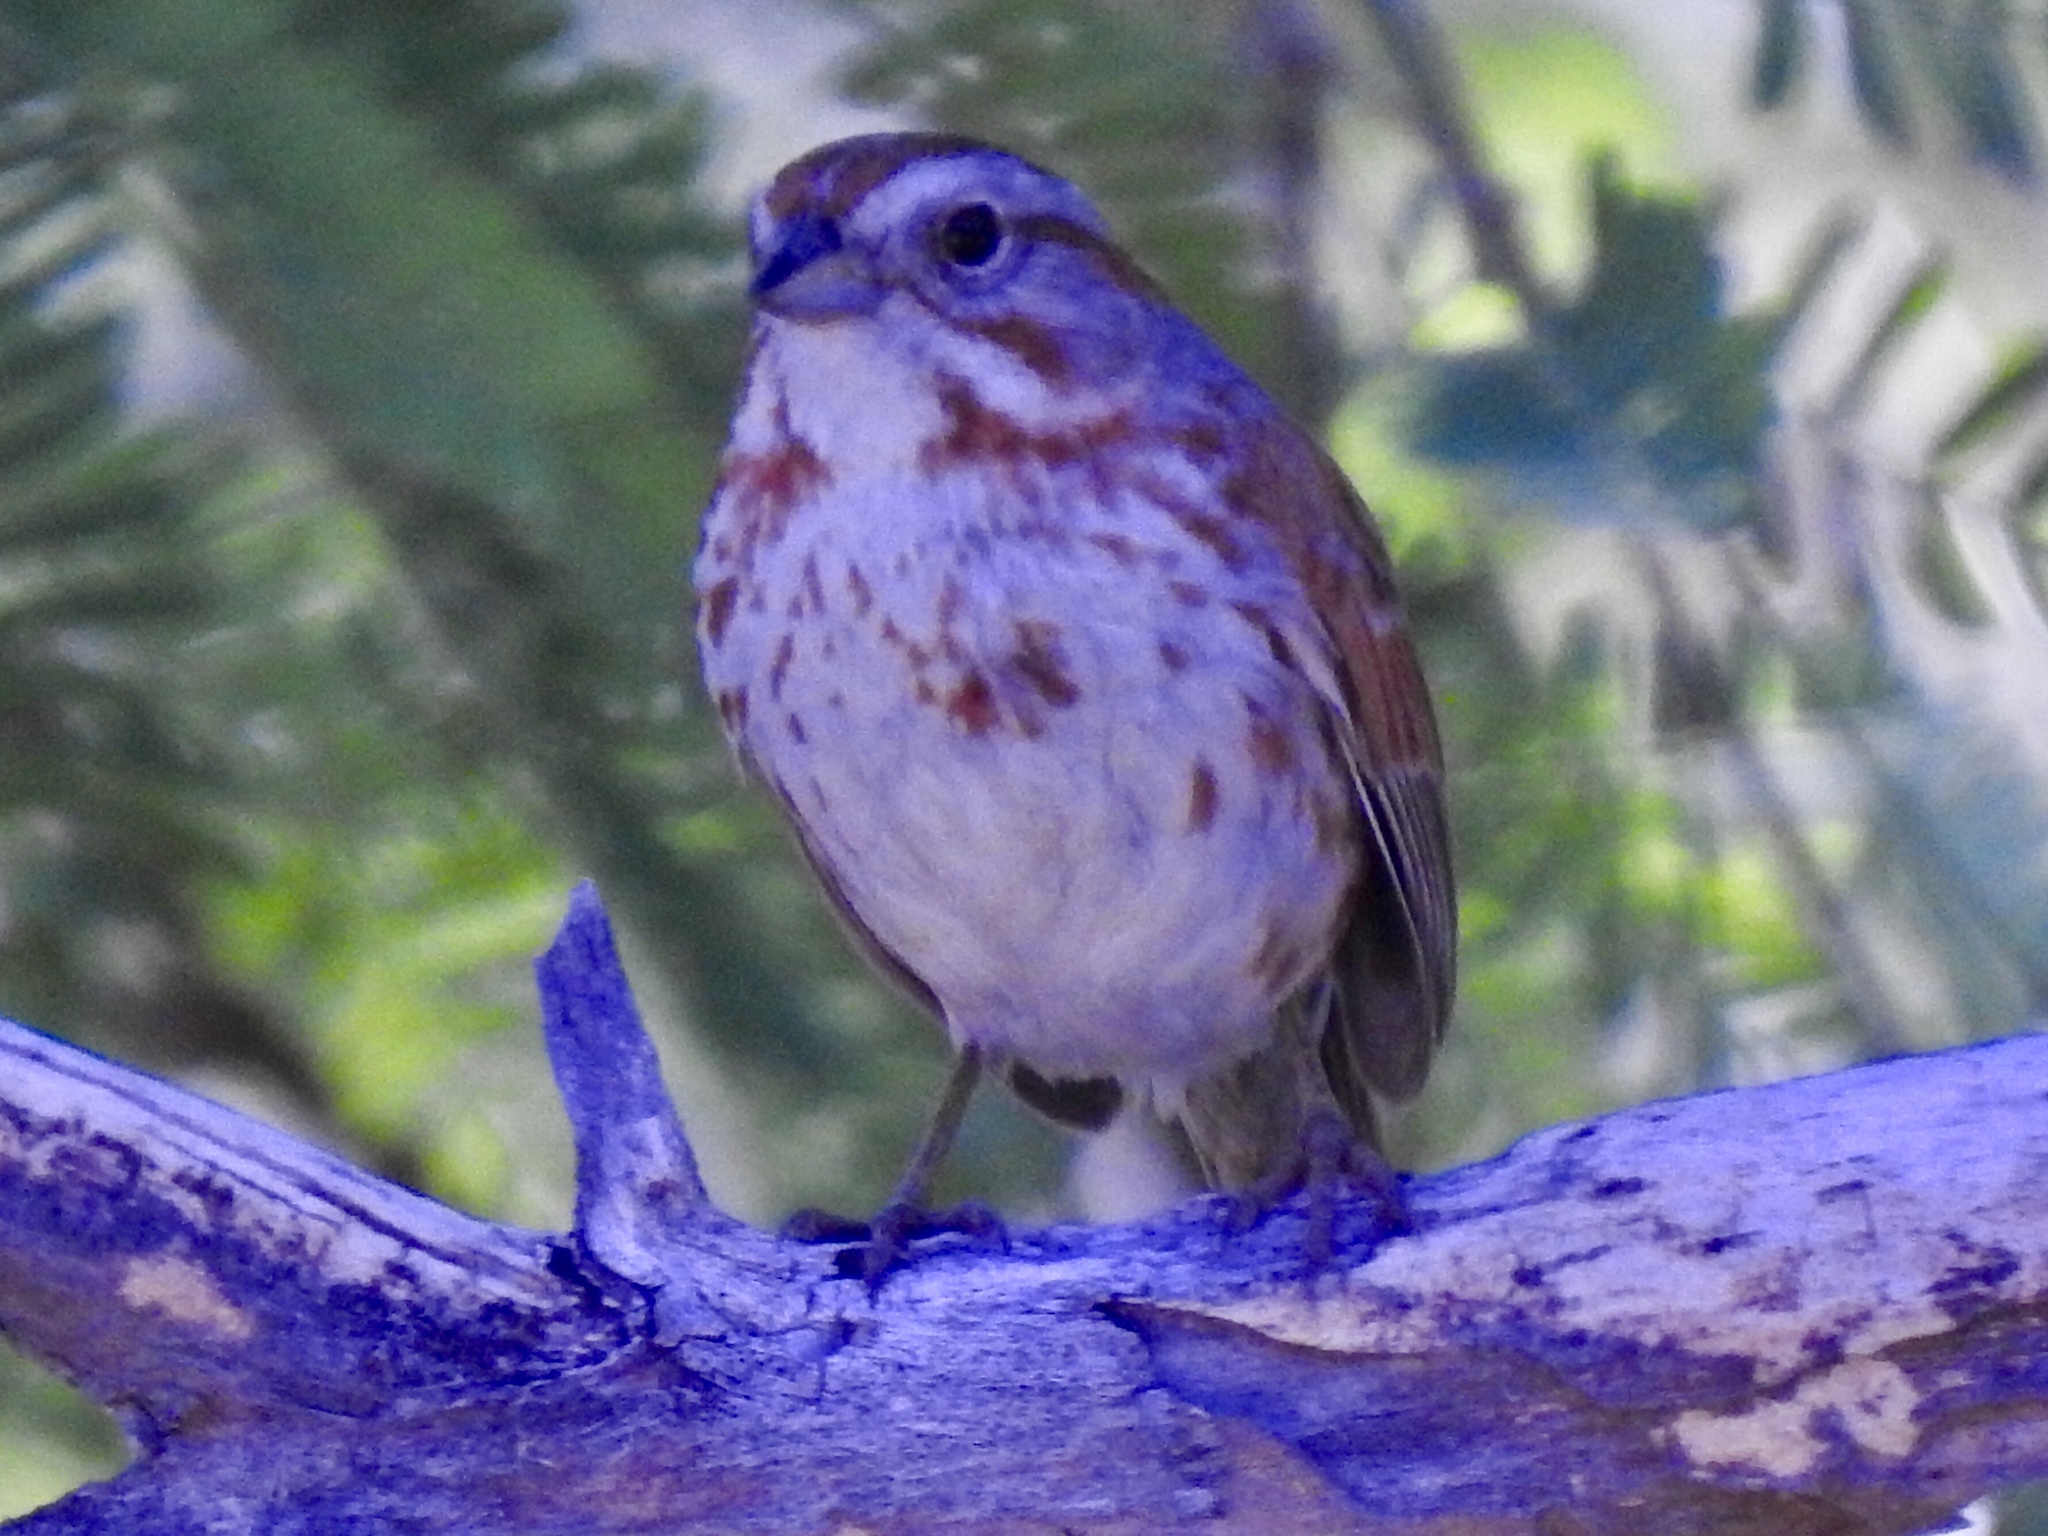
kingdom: Animalia
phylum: Chordata
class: Aves
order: Passeriformes
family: Passerellidae
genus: Melospiza
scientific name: Melospiza melodia
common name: Song sparrow
